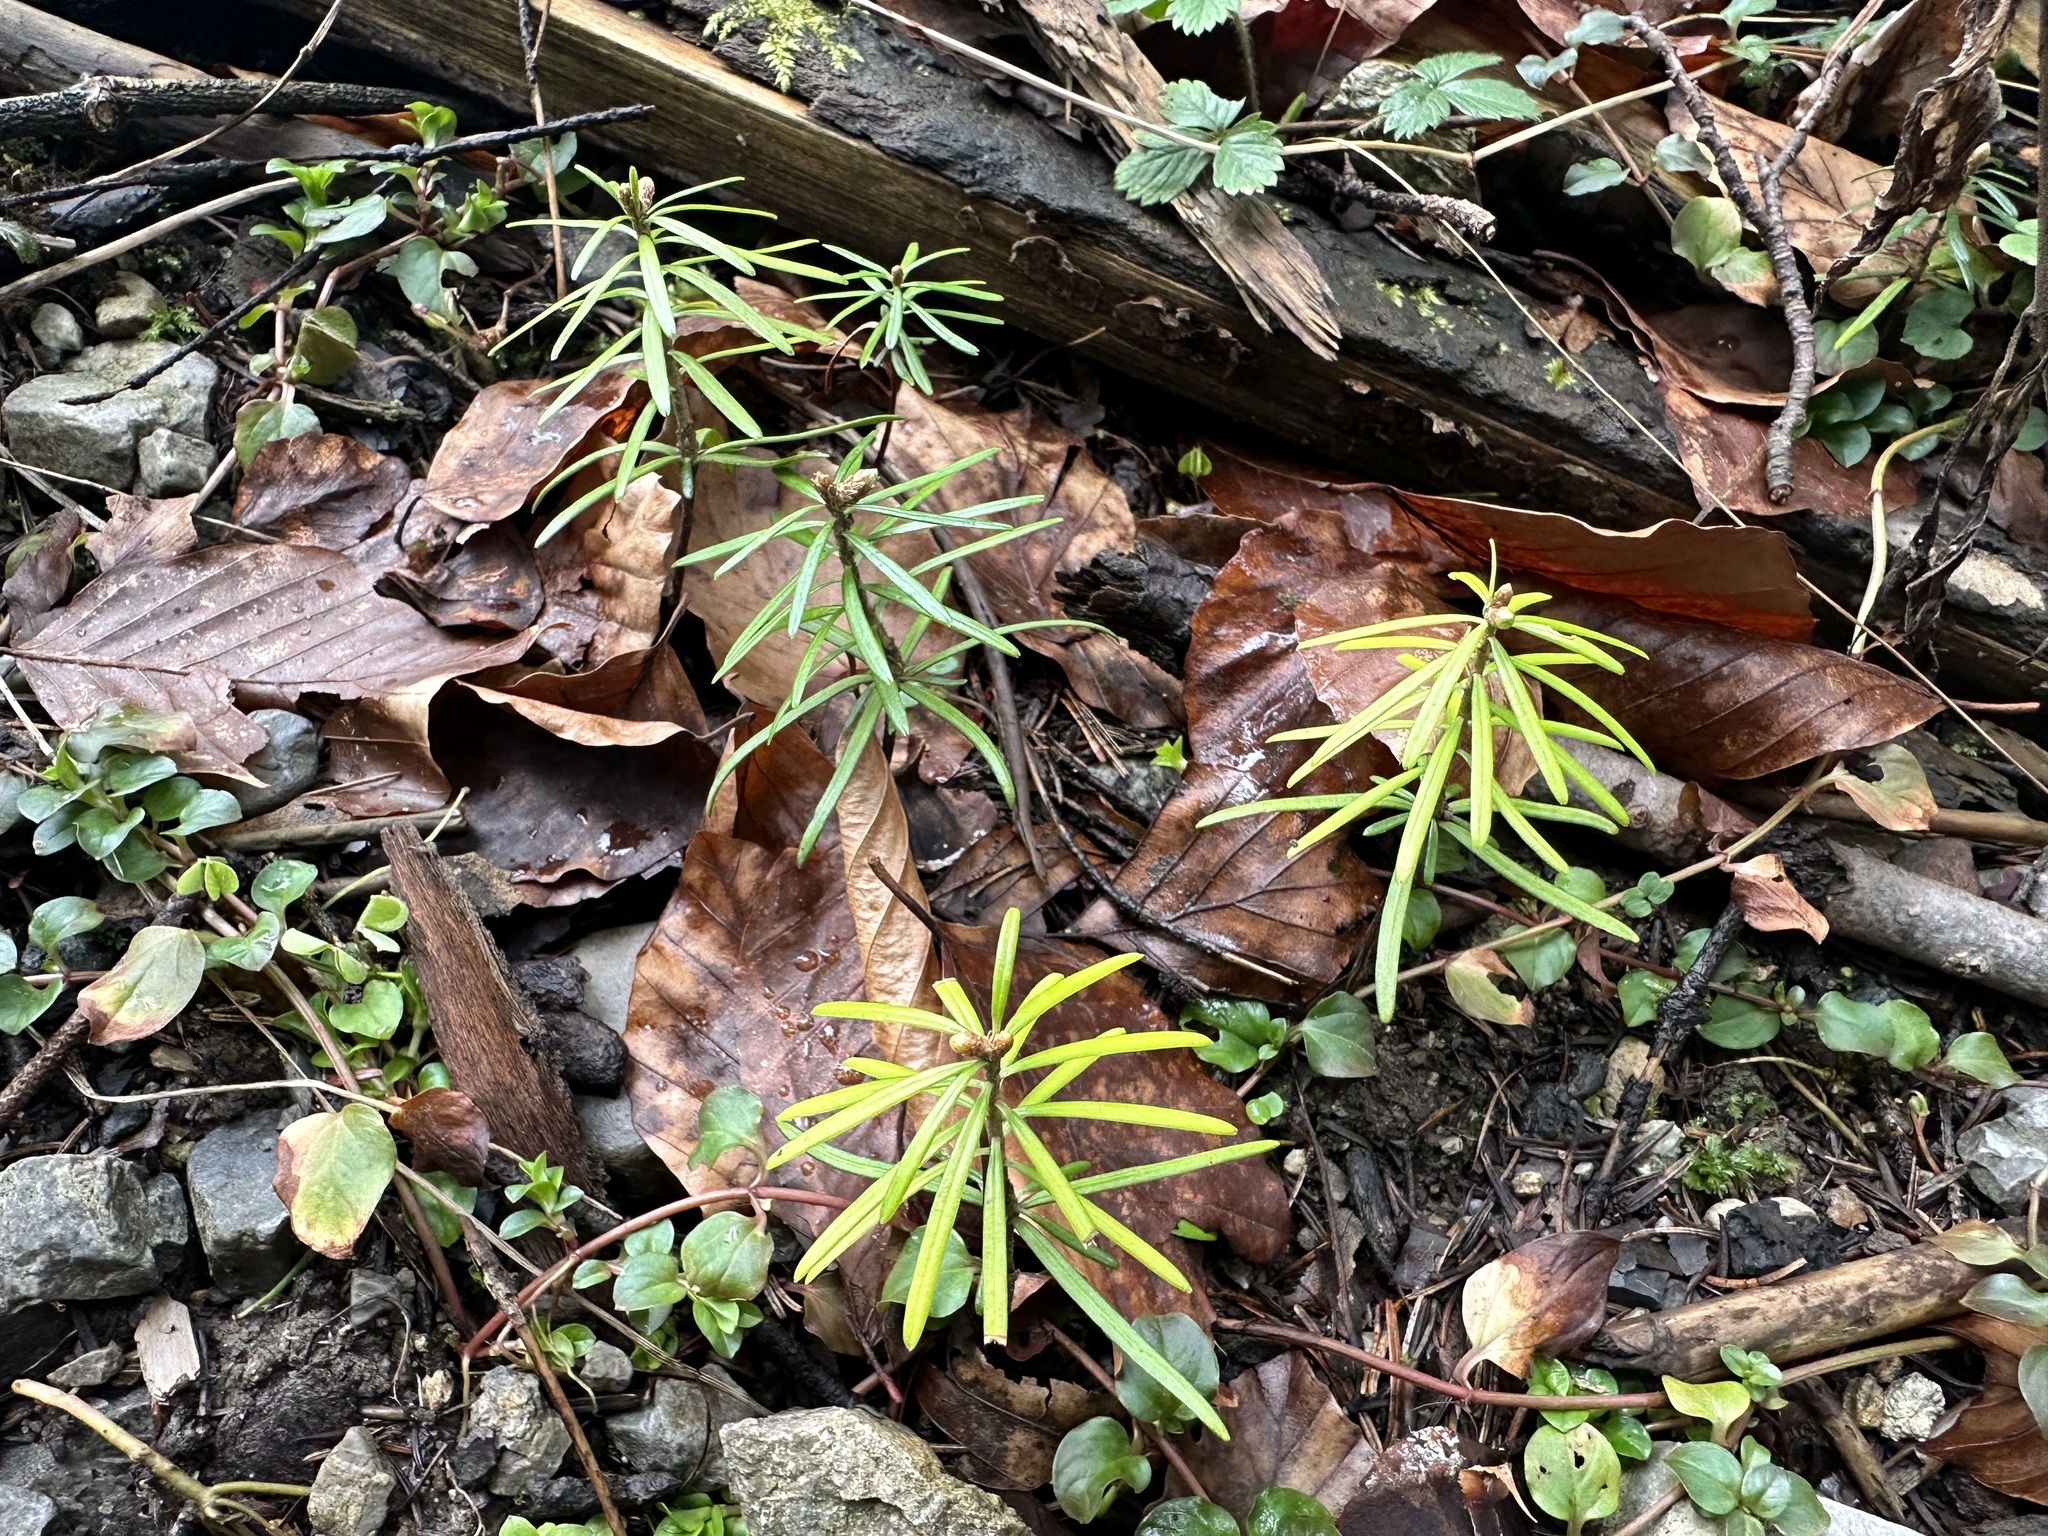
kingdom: Plantae
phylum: Tracheophyta
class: Pinopsida
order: Pinales
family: Pinaceae
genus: Abies
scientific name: Abies alba
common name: Silver fir
